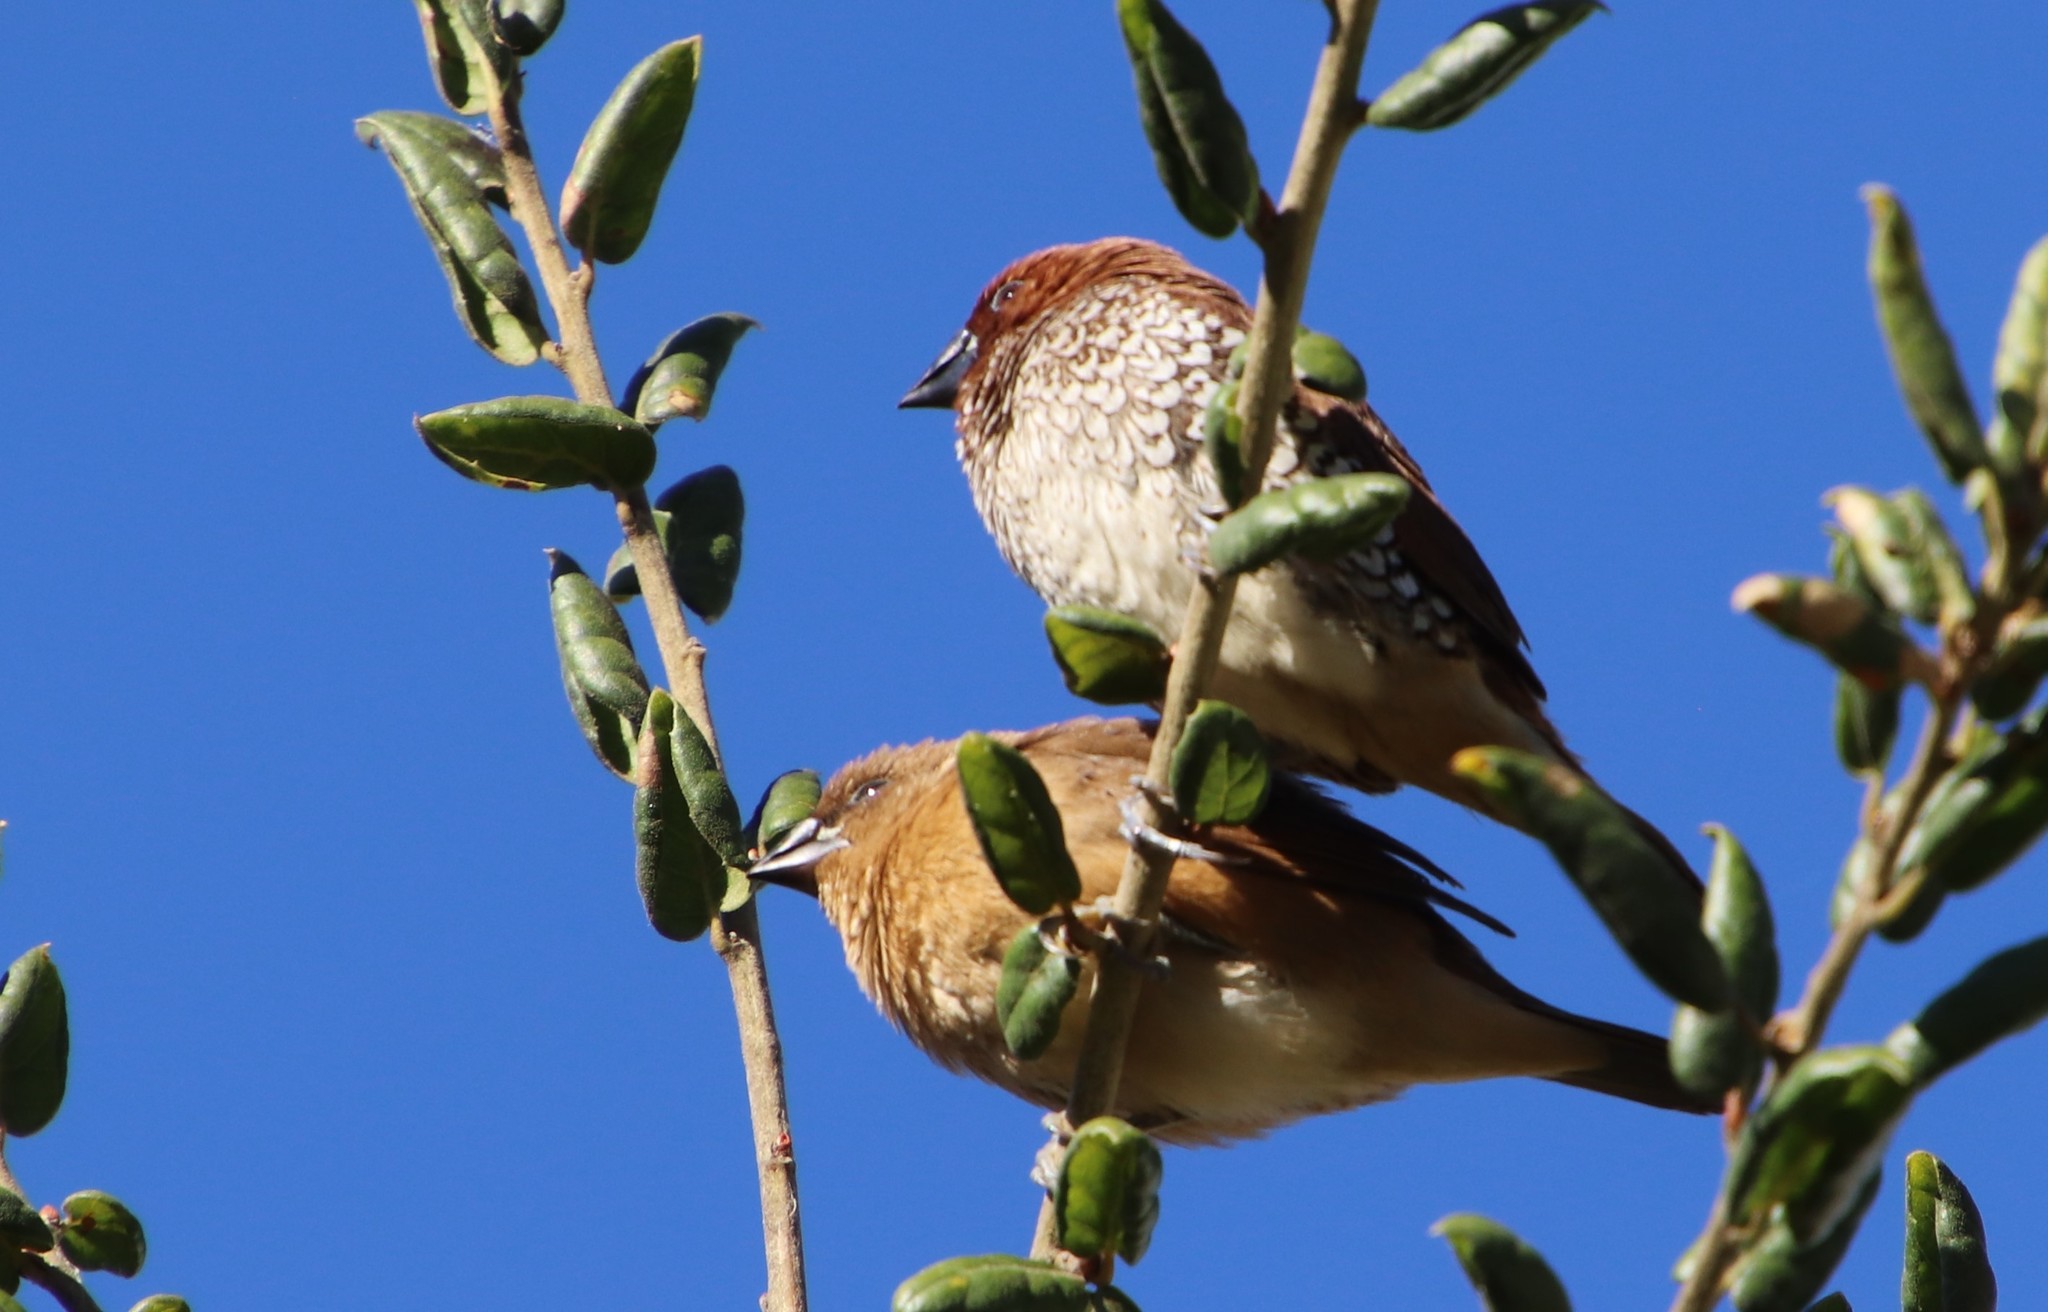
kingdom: Animalia
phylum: Chordata
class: Aves
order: Passeriformes
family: Estrildidae
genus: Lonchura
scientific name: Lonchura punctulata
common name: Scaly-breasted munia
